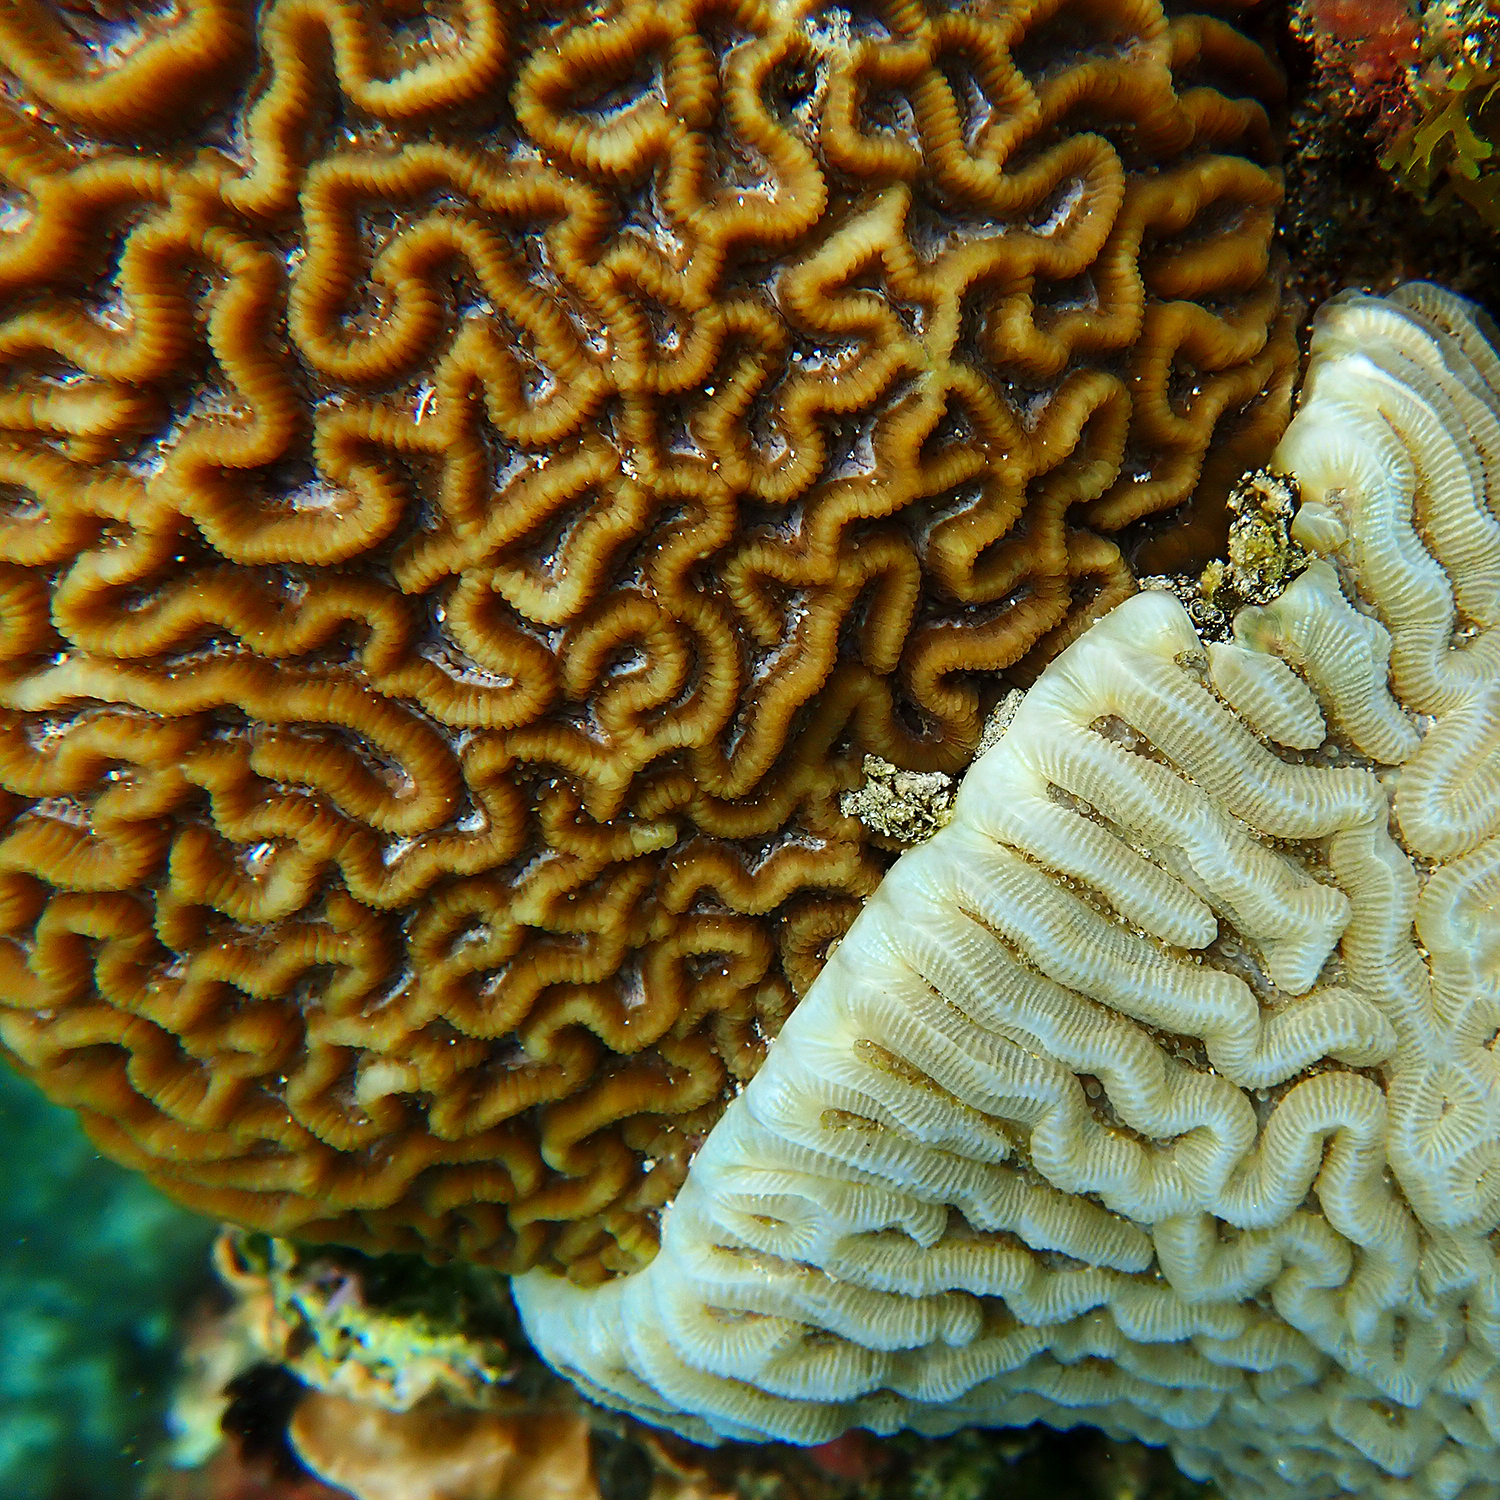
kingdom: Animalia
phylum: Cnidaria
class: Anthozoa
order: Scleractinia
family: Merulinidae
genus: Paragoniastrea
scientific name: Paragoniastrea australensis
